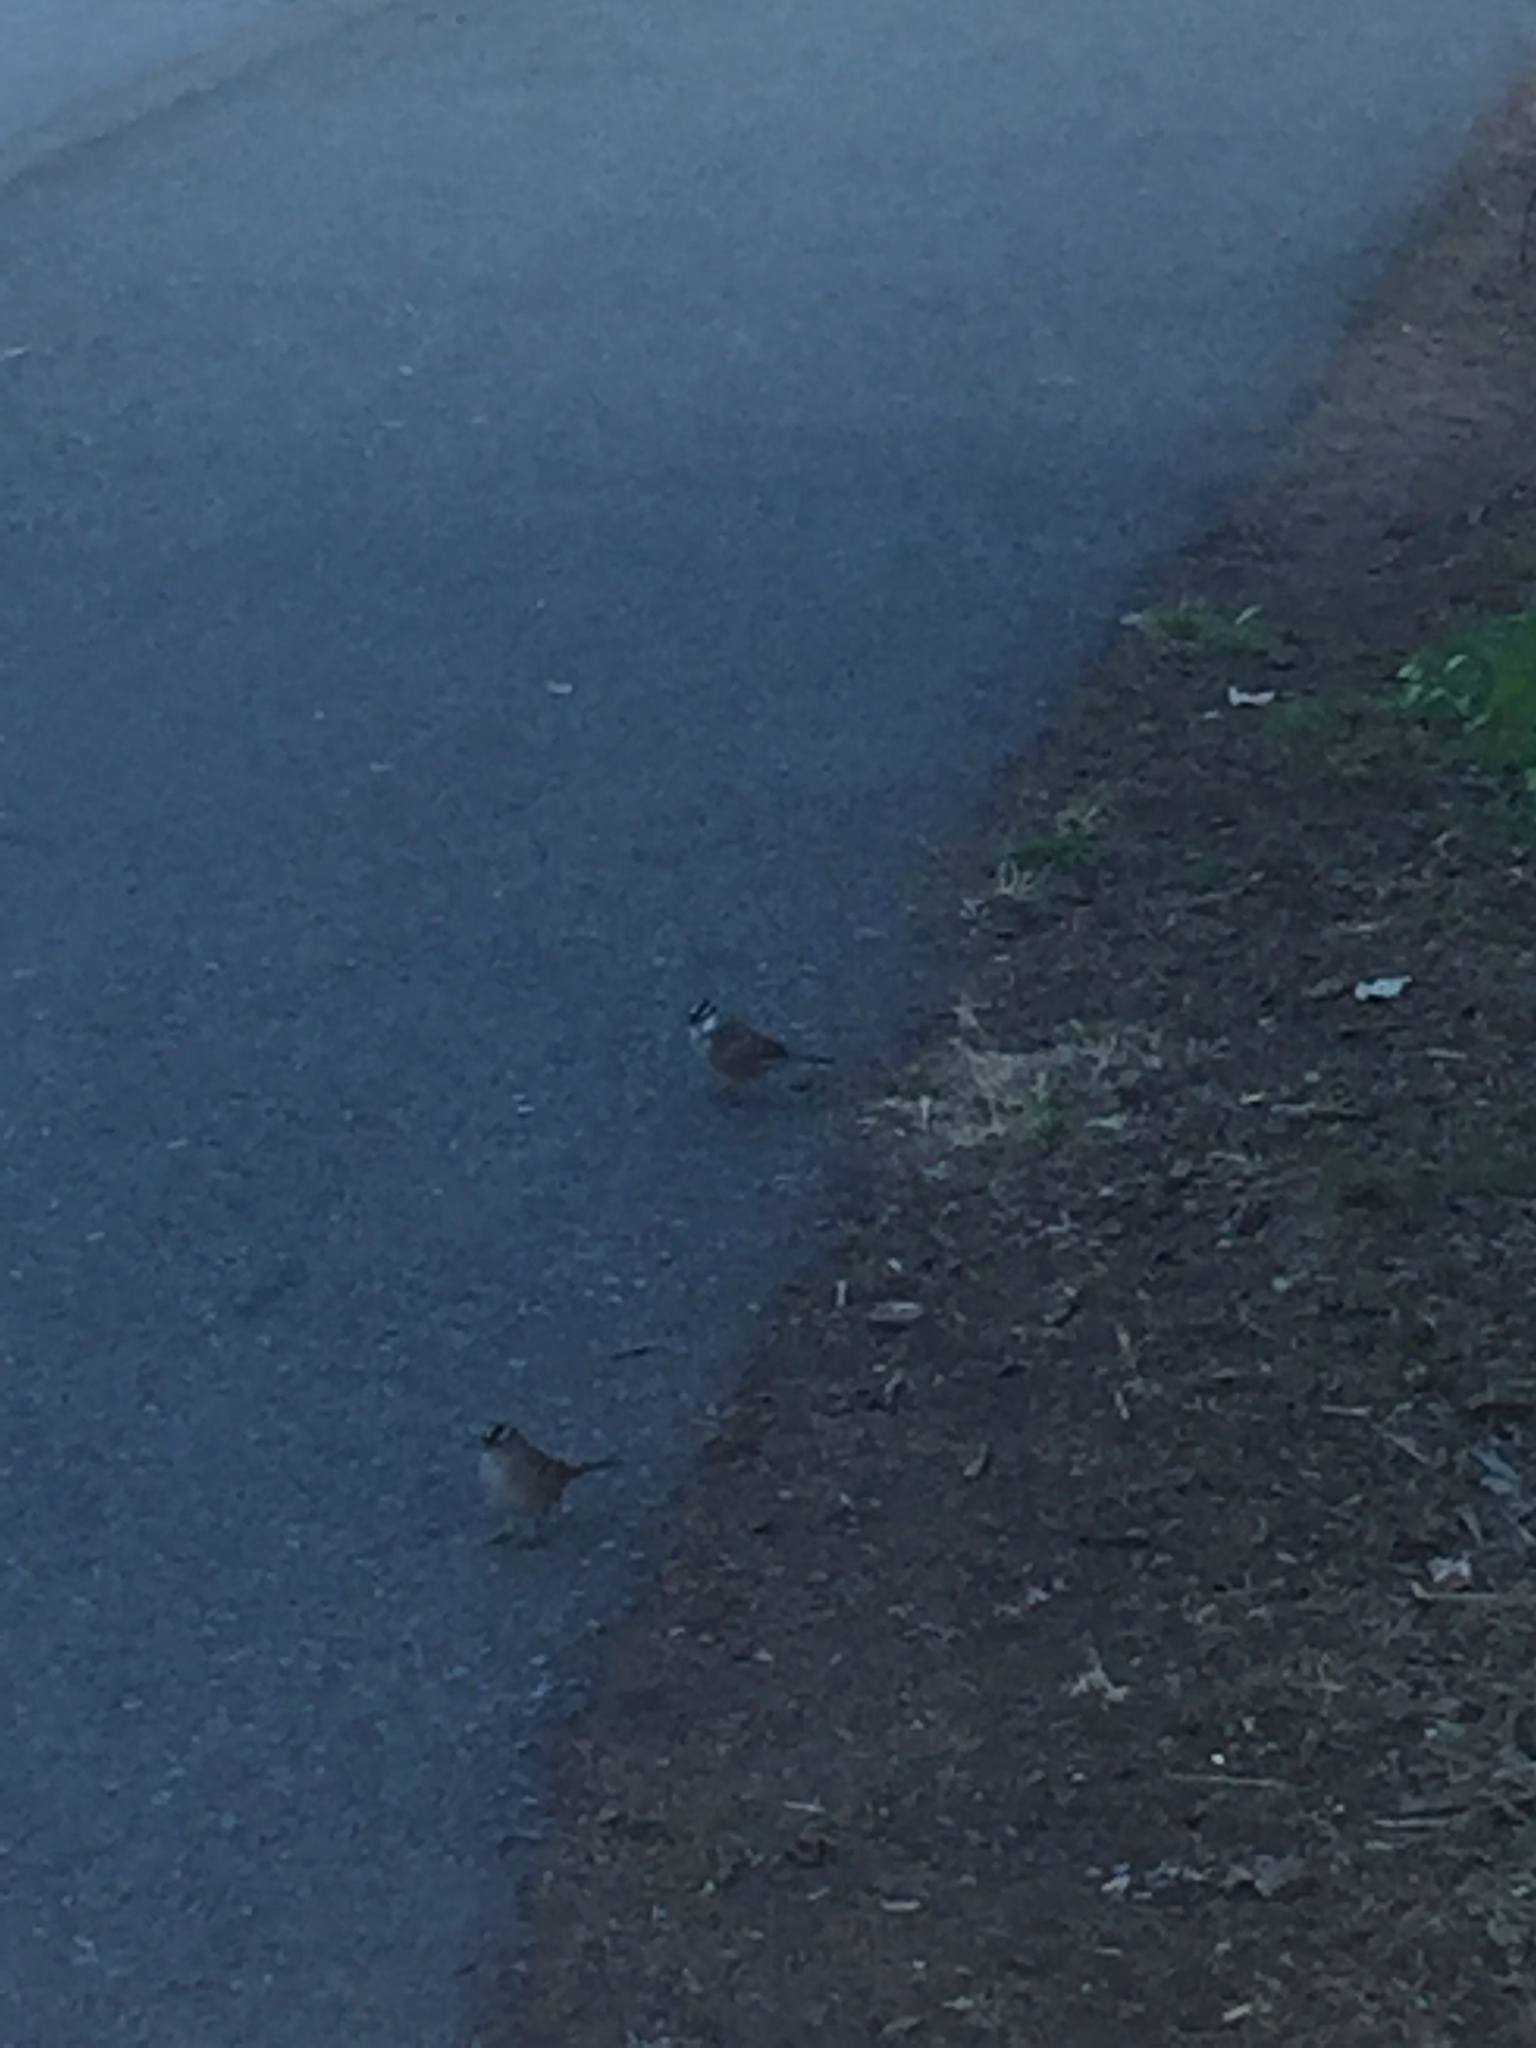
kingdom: Animalia
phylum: Chordata
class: Aves
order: Passeriformes
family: Passerellidae
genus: Zonotrichia
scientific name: Zonotrichia leucophrys
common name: White-crowned sparrow
